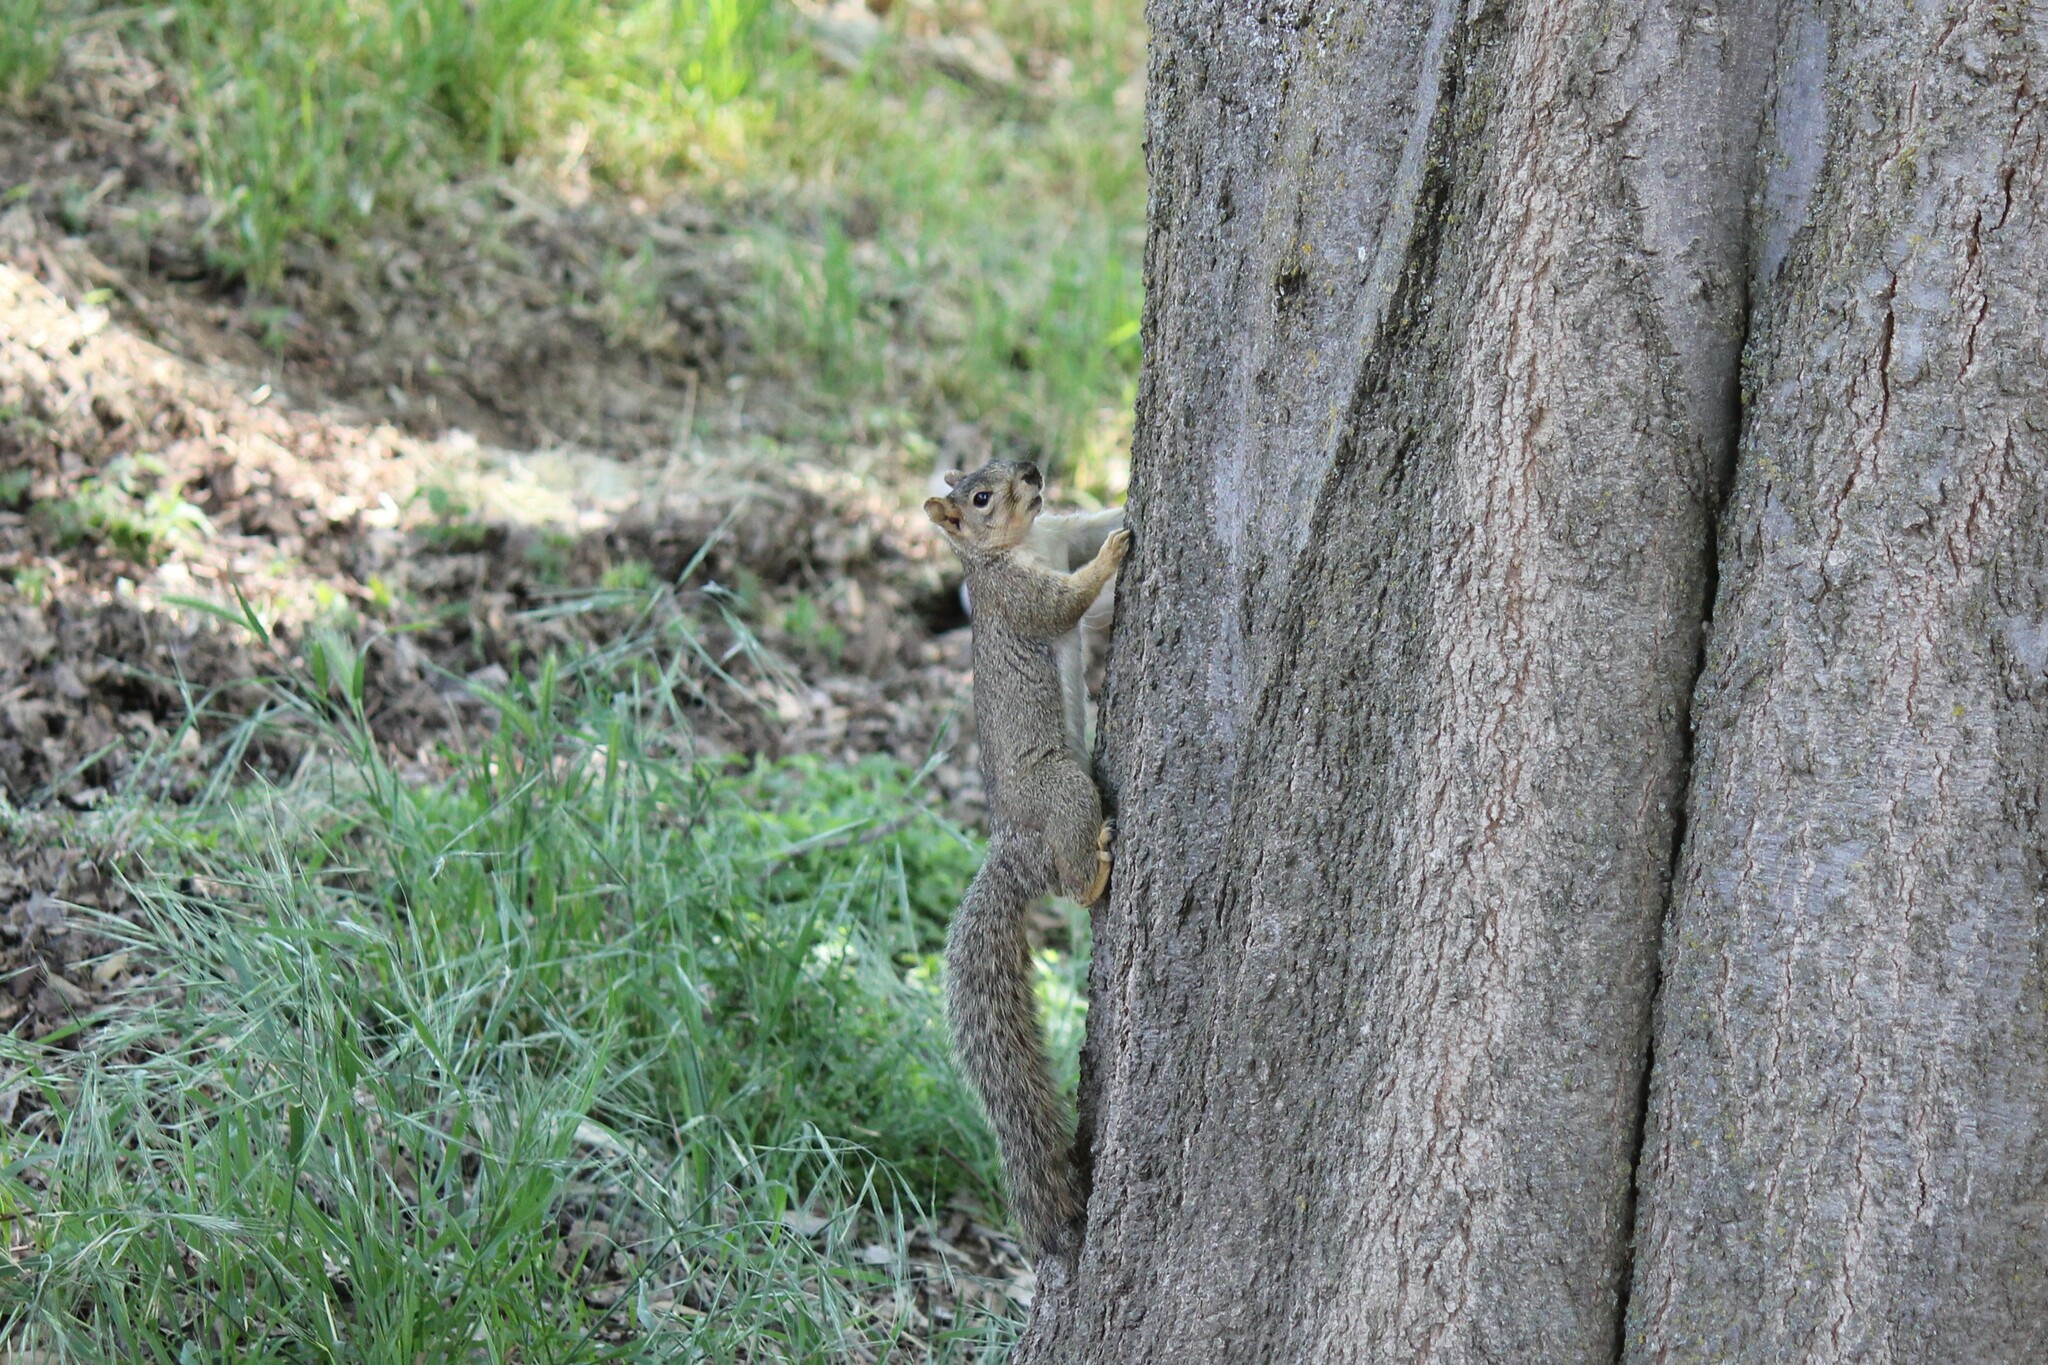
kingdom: Animalia
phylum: Chordata
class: Mammalia
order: Rodentia
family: Sciuridae
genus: Sciurus
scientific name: Sciurus niger
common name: Fox squirrel
